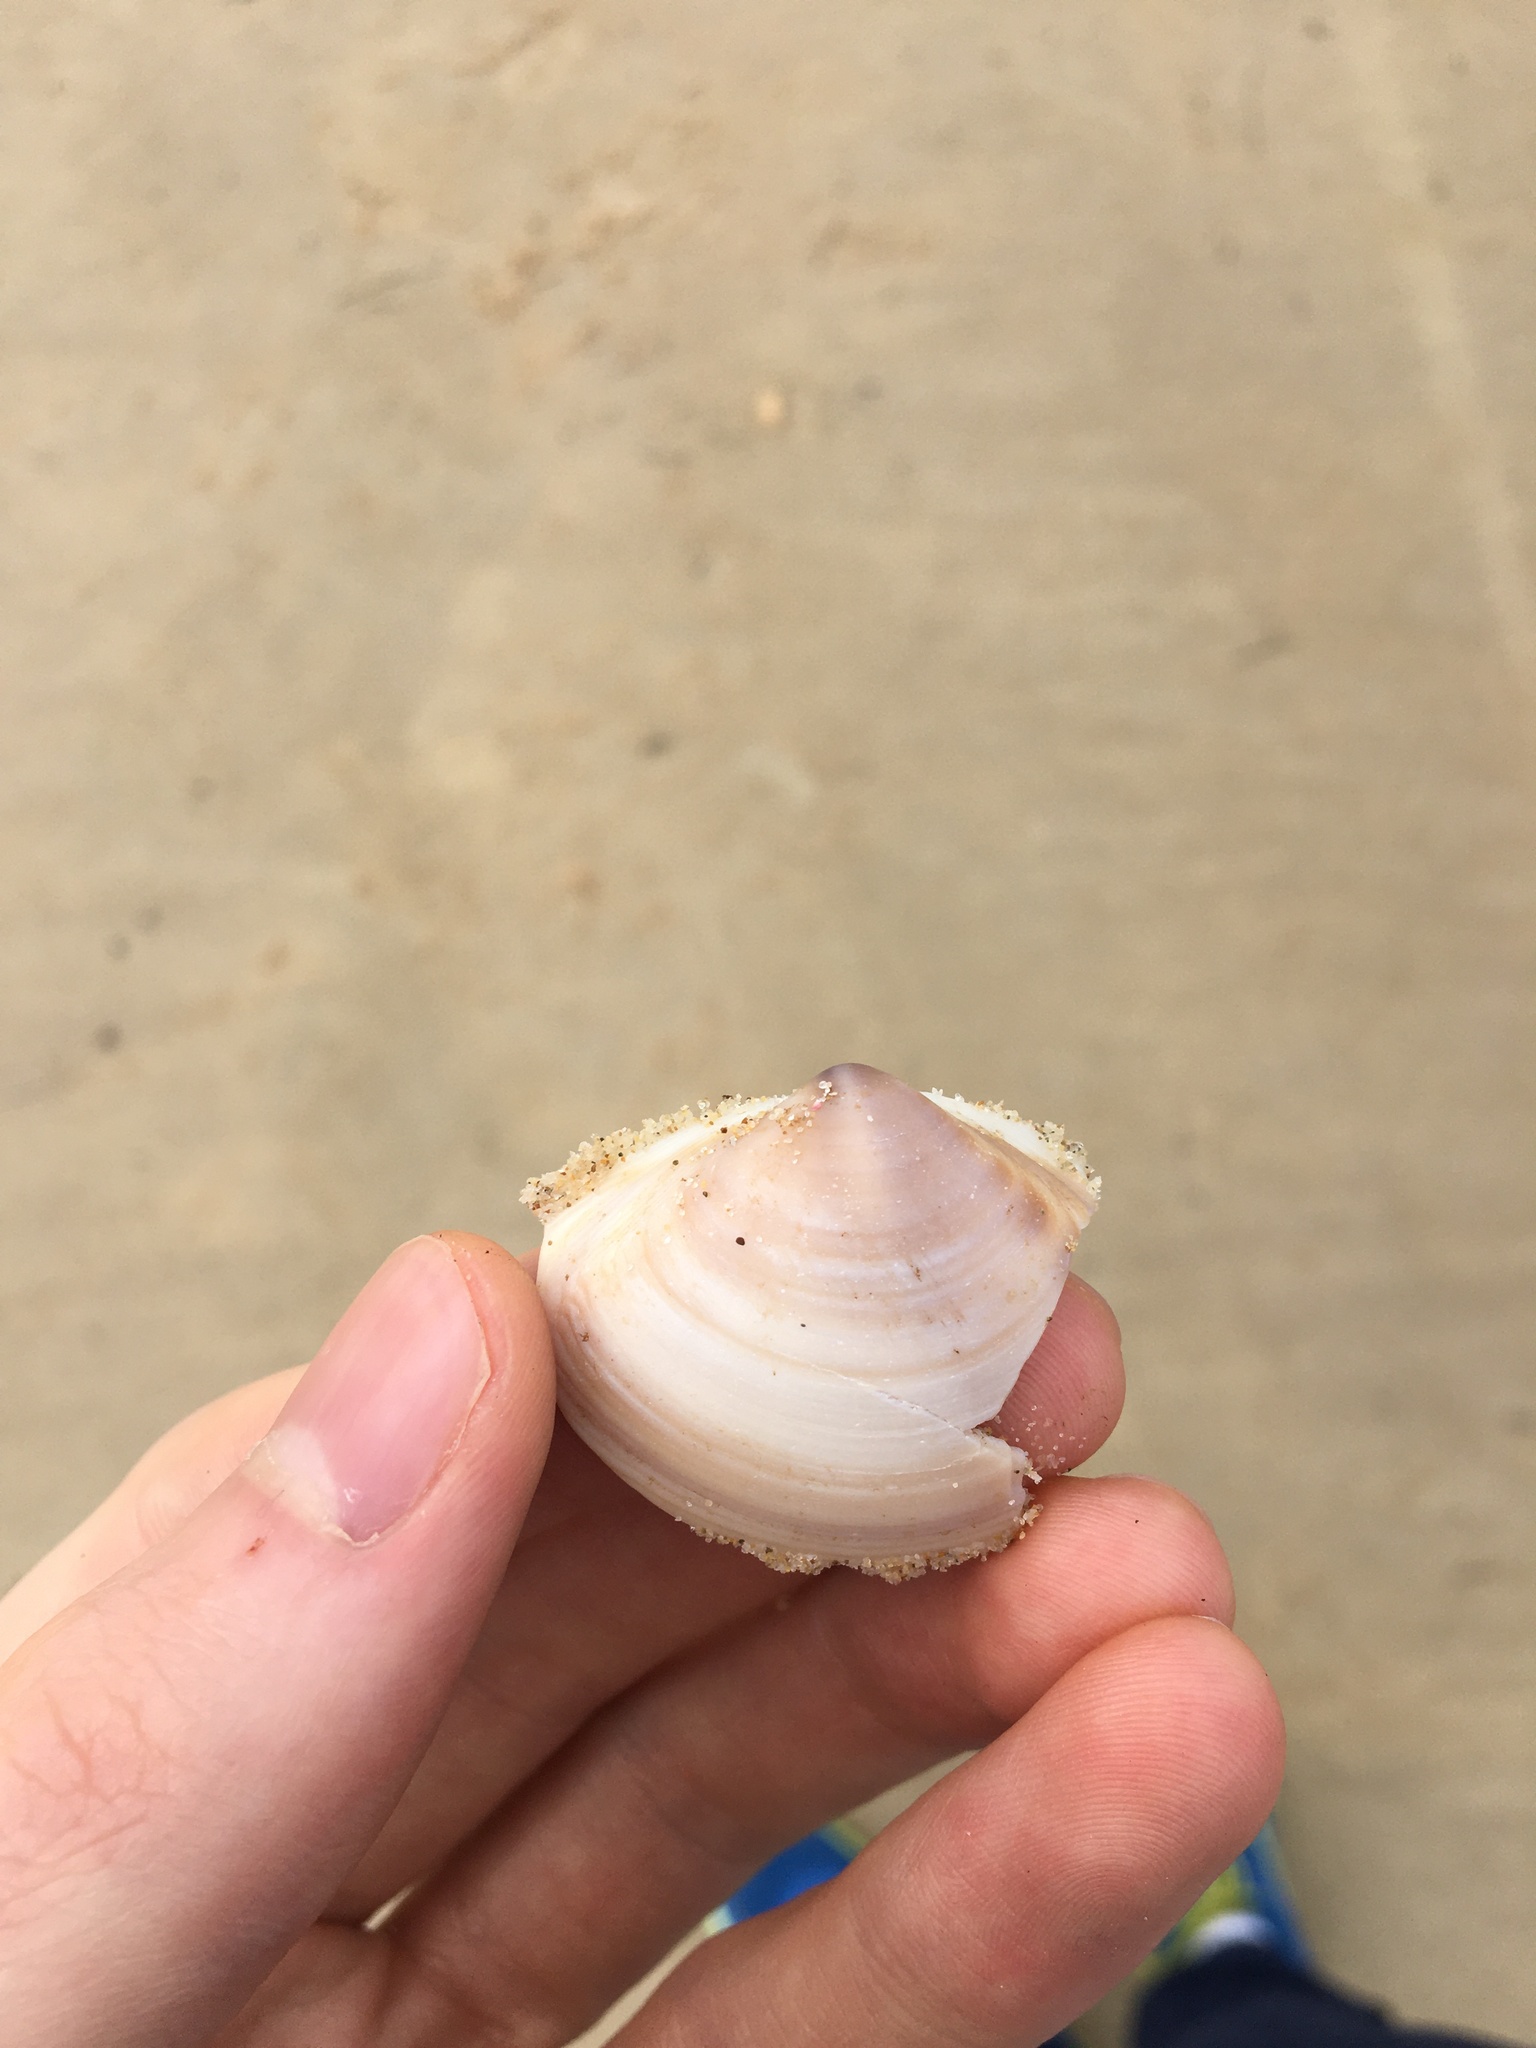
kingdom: Animalia
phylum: Mollusca
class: Bivalvia
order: Venerida
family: Mactridae
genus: Austromactra
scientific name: Austromactra rufescens
